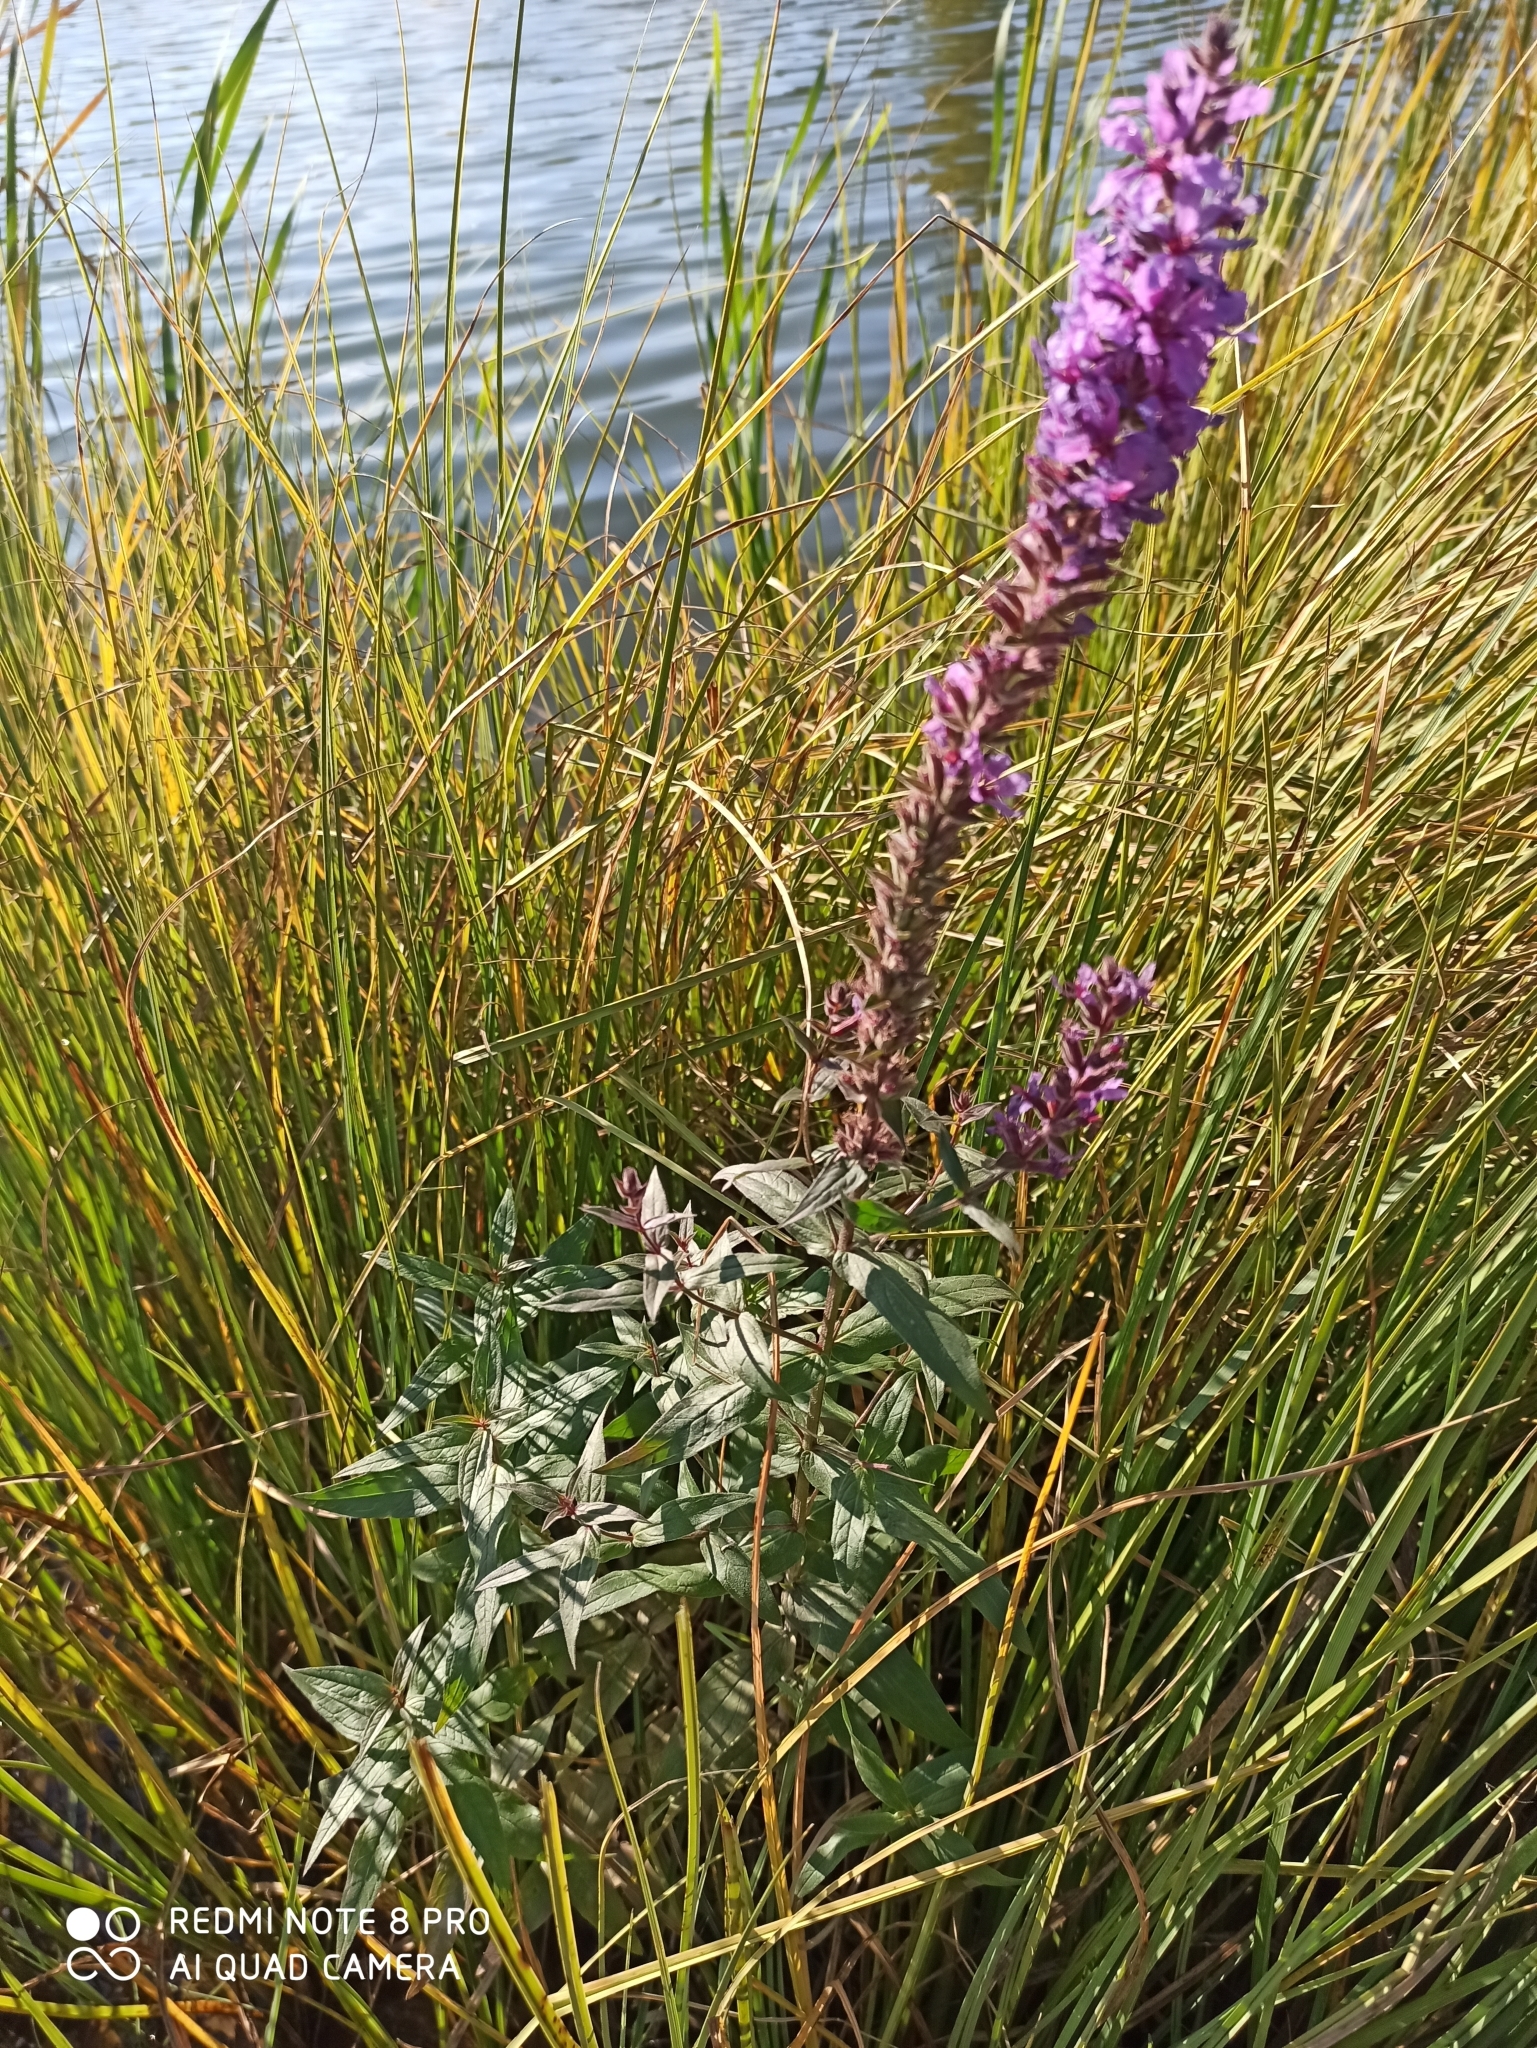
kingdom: Plantae
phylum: Tracheophyta
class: Magnoliopsida
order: Myrtales
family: Lythraceae
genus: Lythrum
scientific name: Lythrum salicaria
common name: Purple loosestrife
